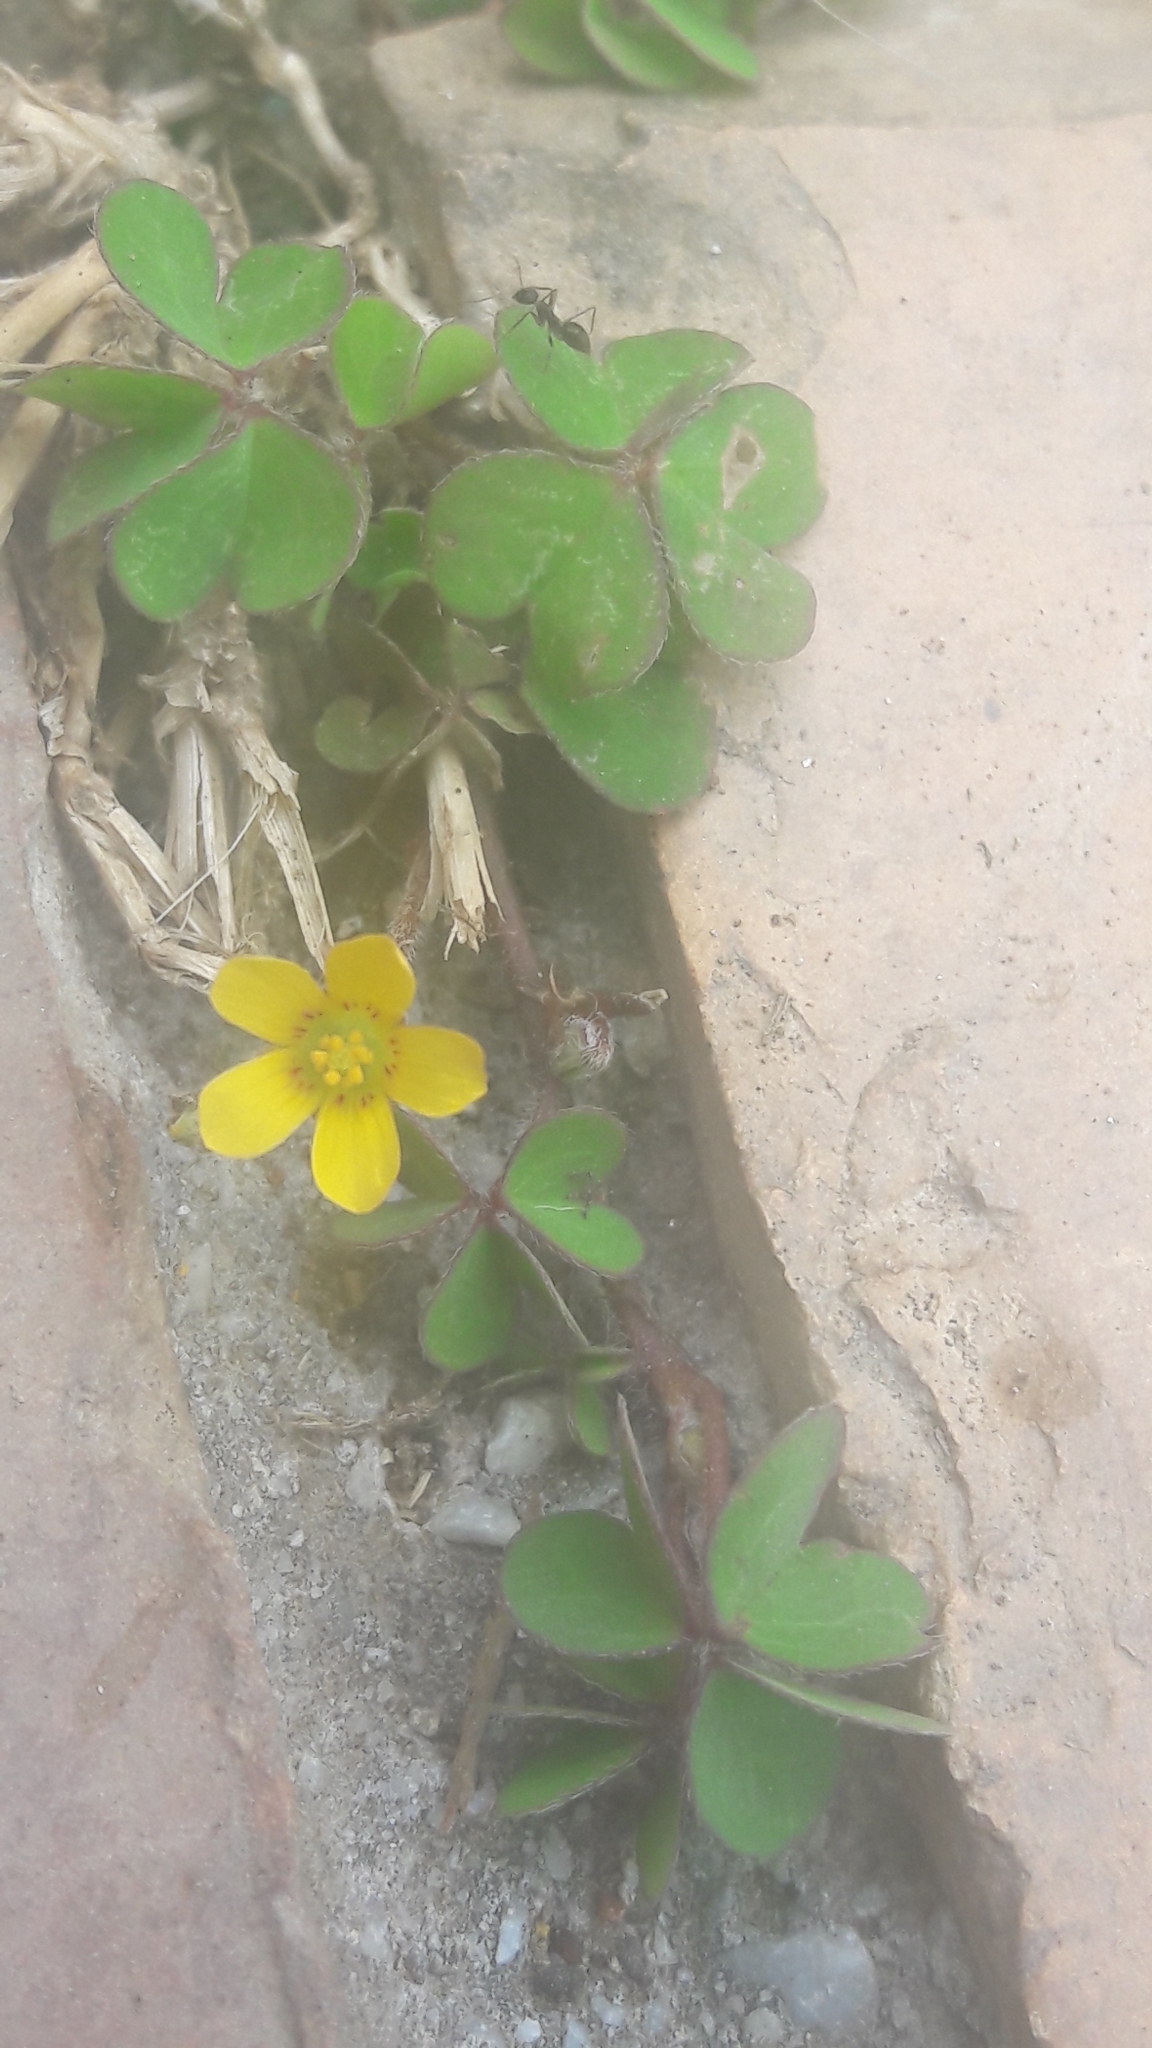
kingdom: Plantae
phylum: Tracheophyta
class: Magnoliopsida
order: Oxalidales
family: Oxalidaceae
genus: Oxalis
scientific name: Oxalis corniculata
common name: Procumbent yellow-sorrel
